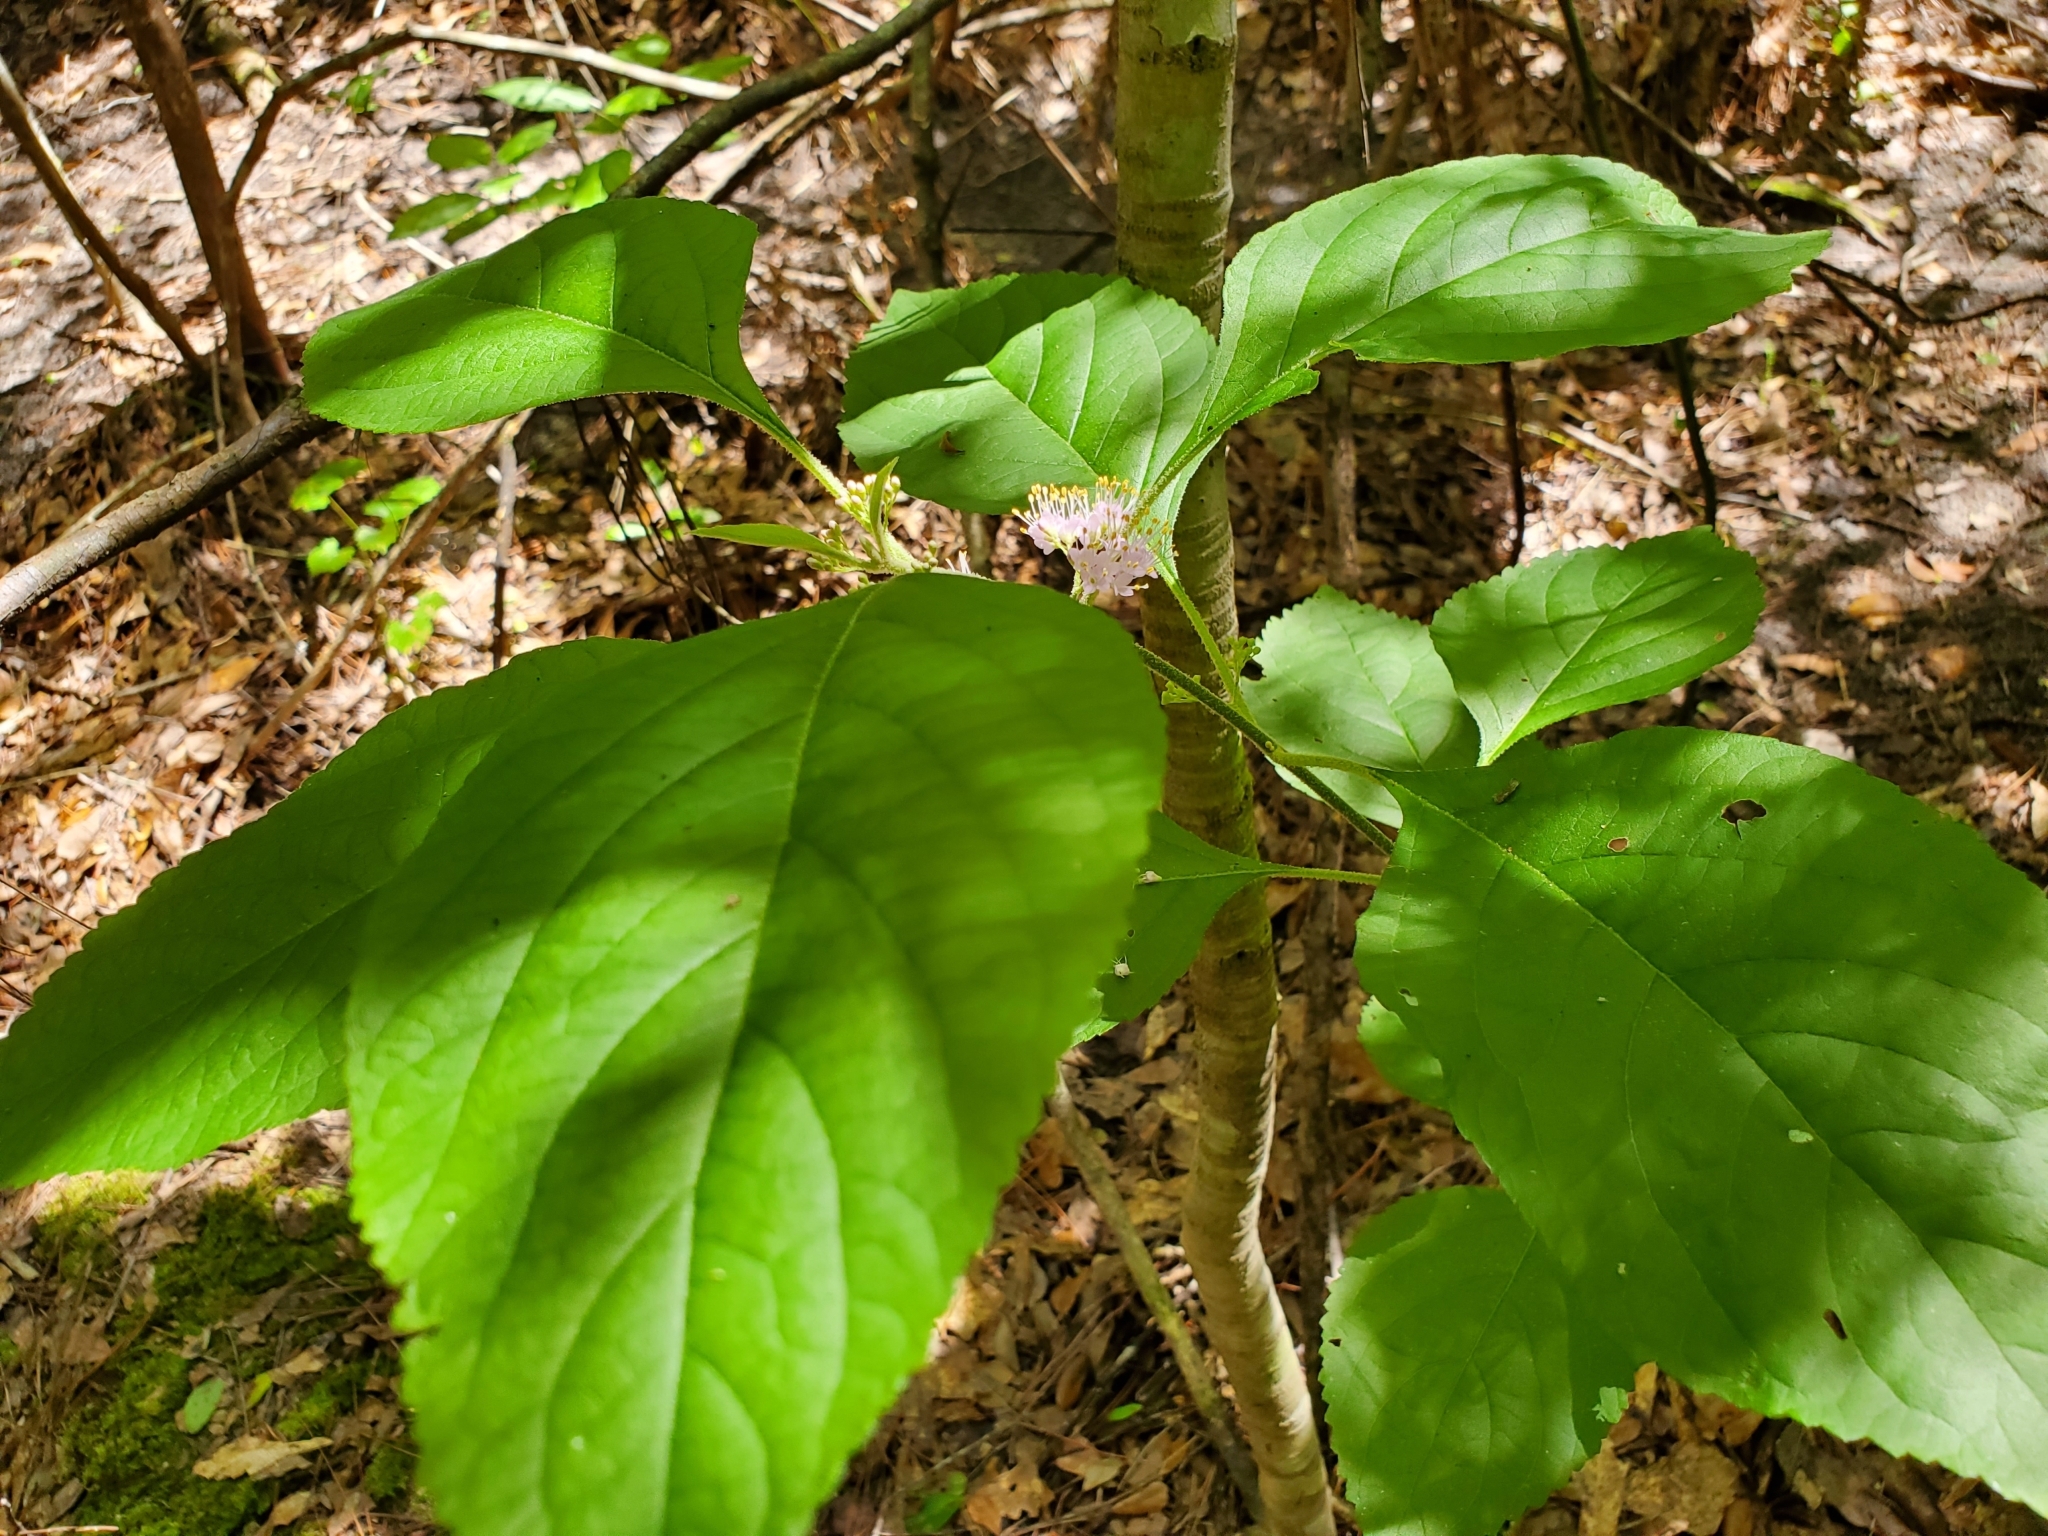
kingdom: Plantae
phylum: Tracheophyta
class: Magnoliopsida
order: Lamiales
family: Lamiaceae
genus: Callicarpa
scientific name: Callicarpa americana
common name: American beautyberry
